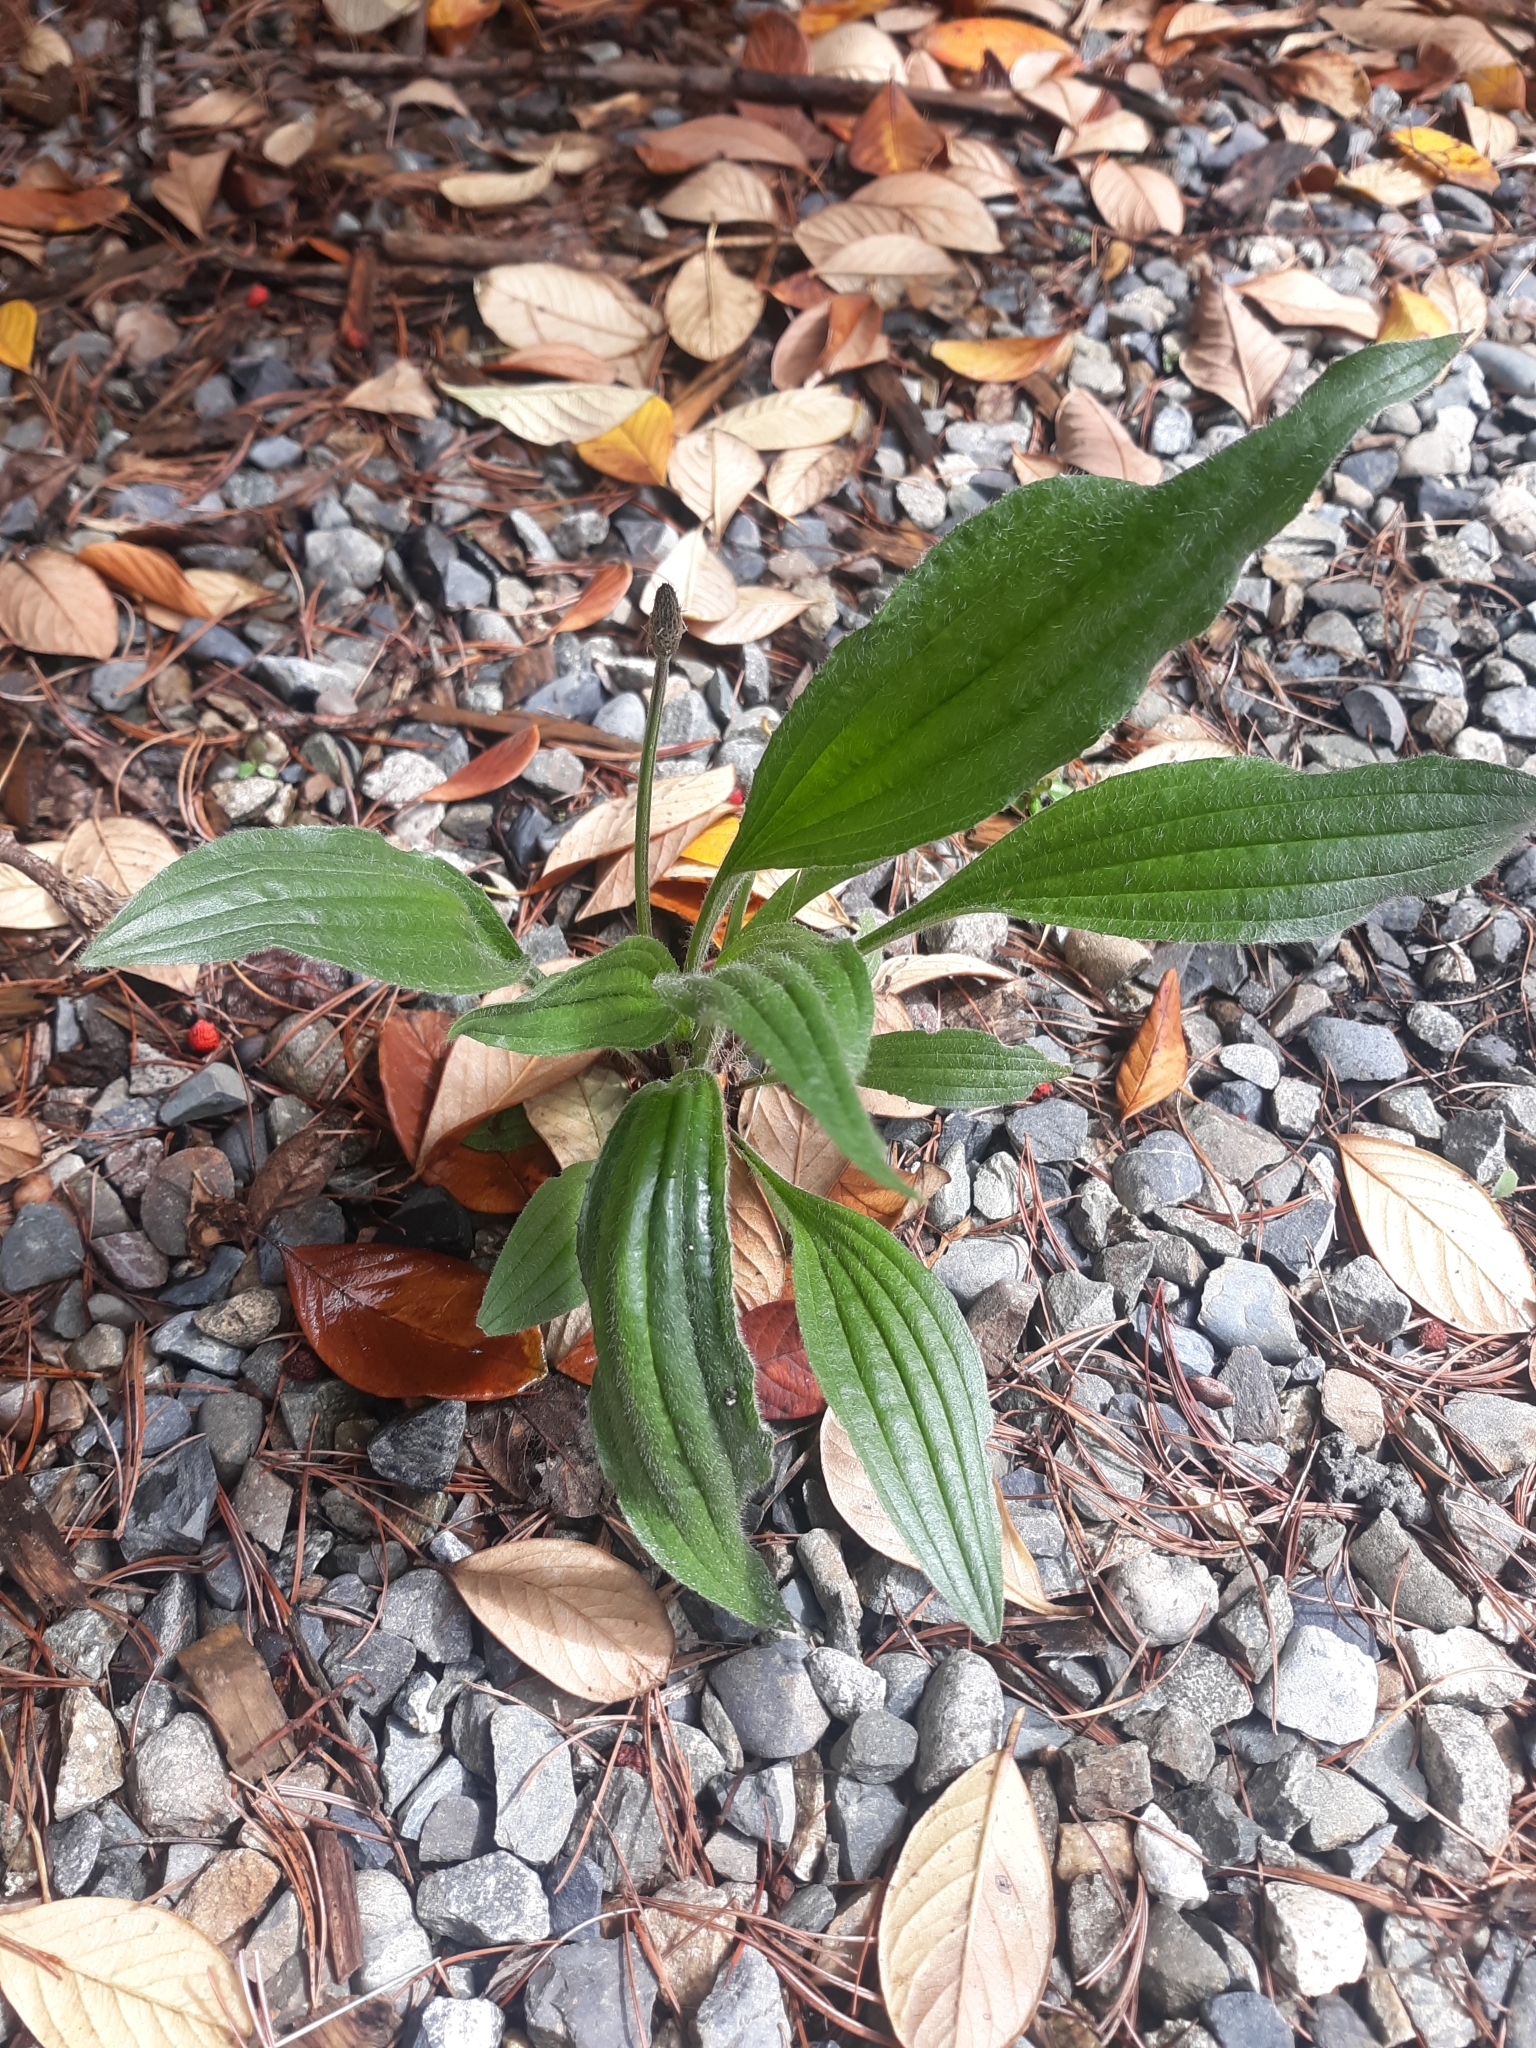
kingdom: Plantae
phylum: Tracheophyta
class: Magnoliopsida
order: Lamiales
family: Plantaginaceae
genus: Plantago
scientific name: Plantago lanceolata
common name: Ribwort plantain
